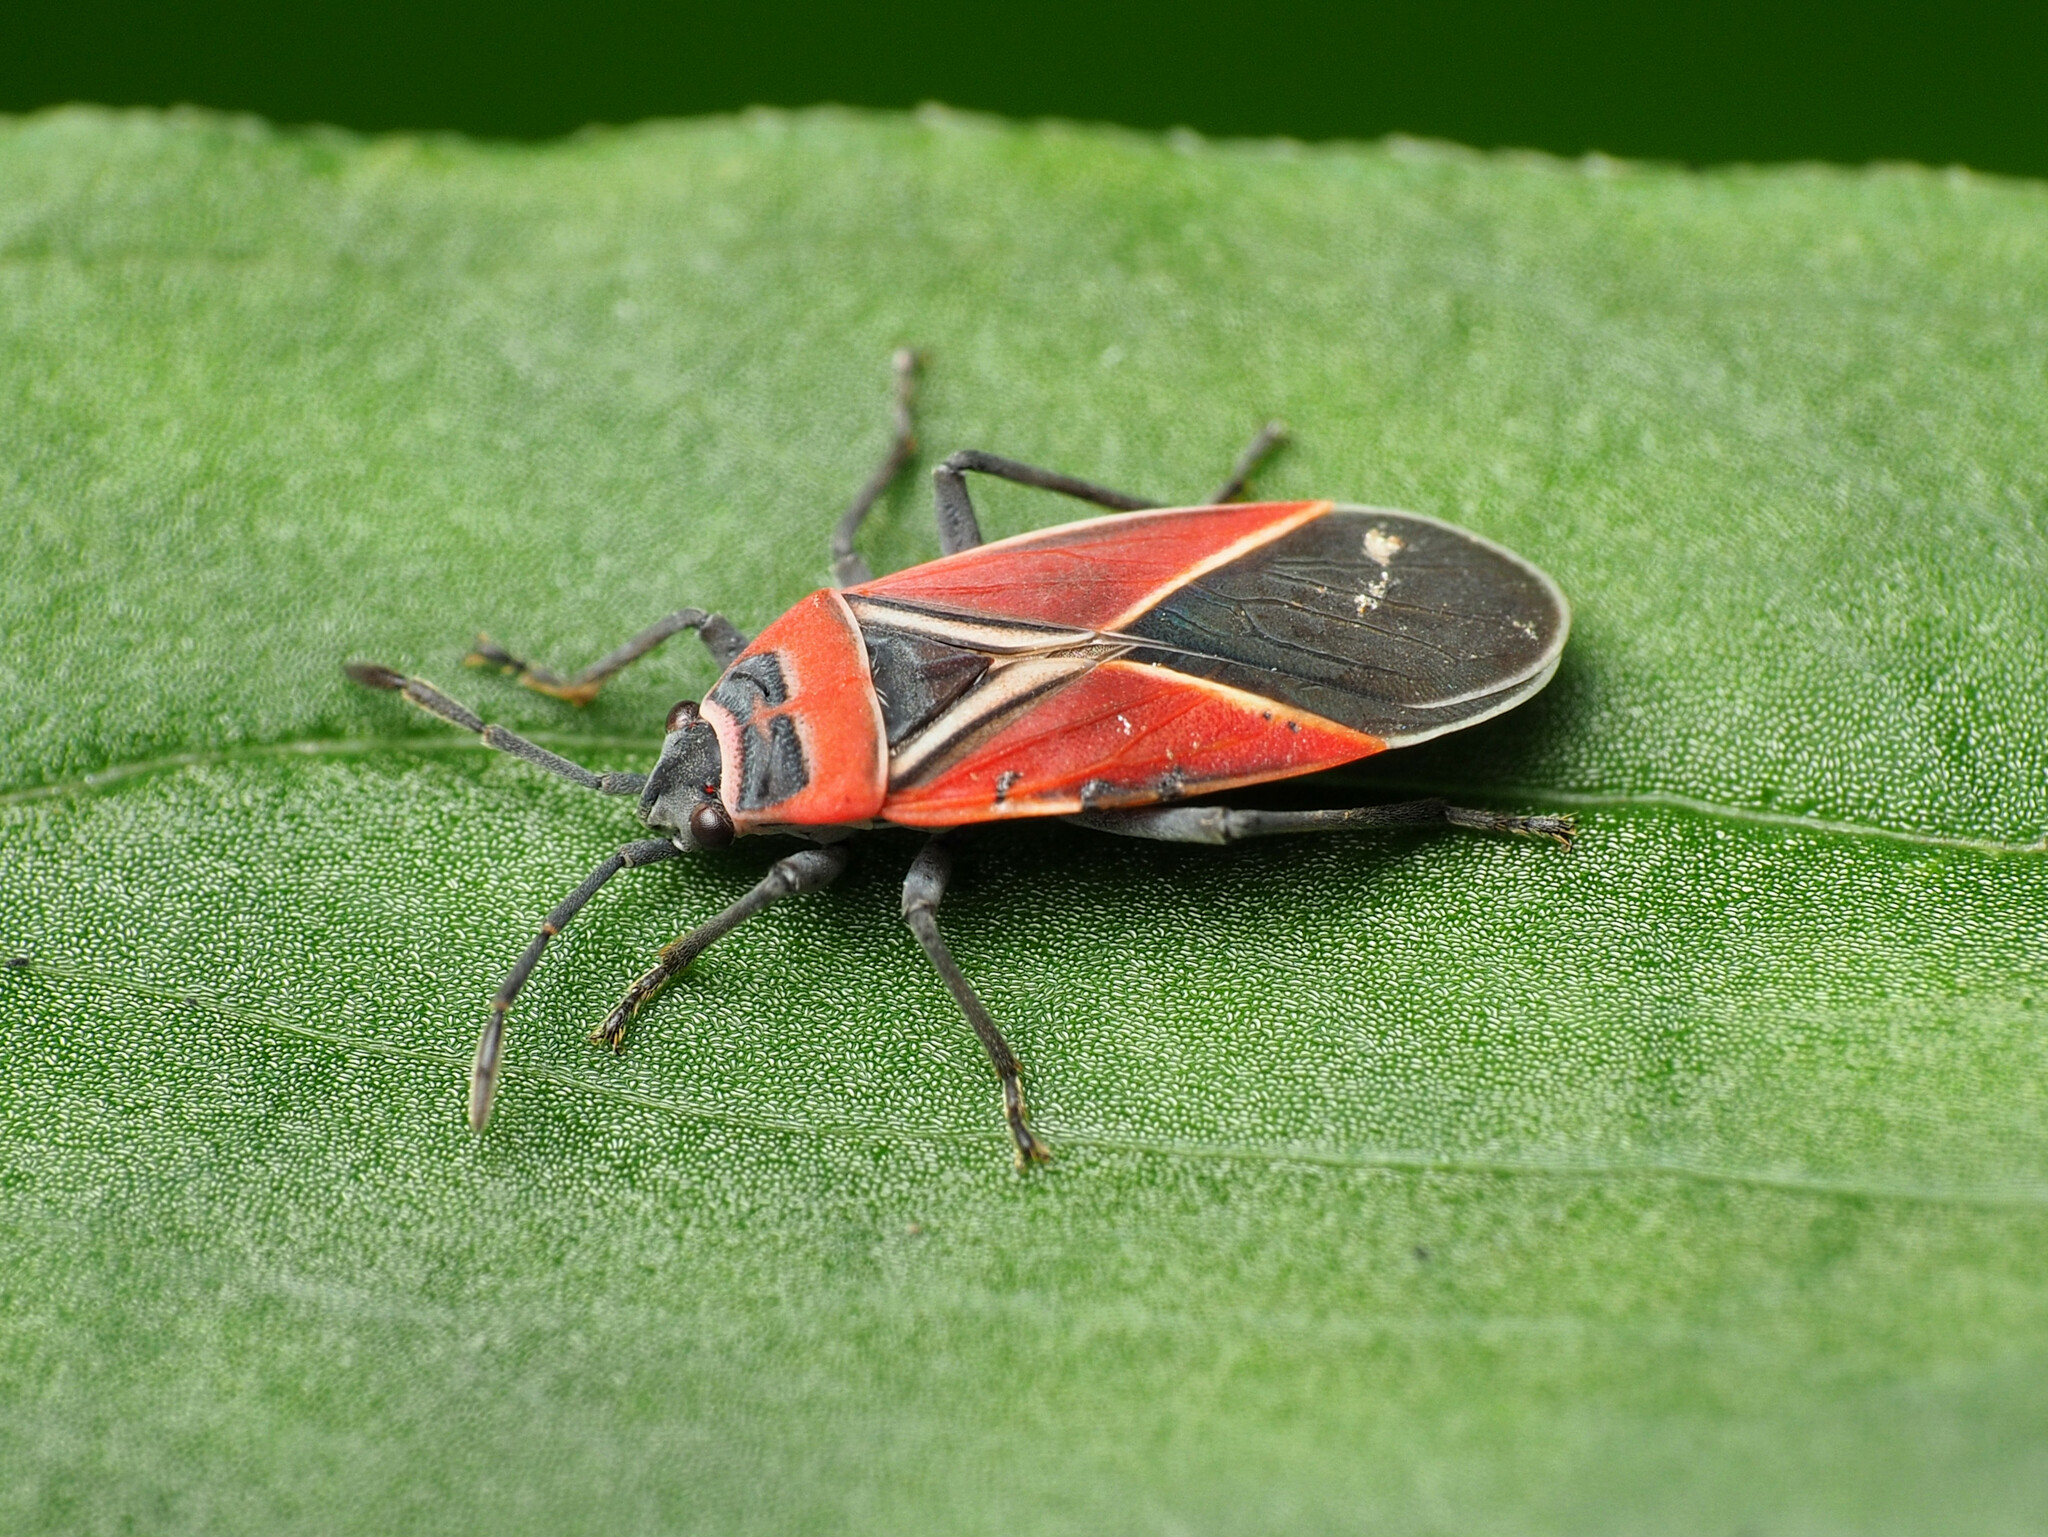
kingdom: Animalia
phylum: Arthropoda
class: Insecta
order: Hemiptera
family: Lygaeidae
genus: Neacoryphus
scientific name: Neacoryphus bicrucis
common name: Lygaeid bug
